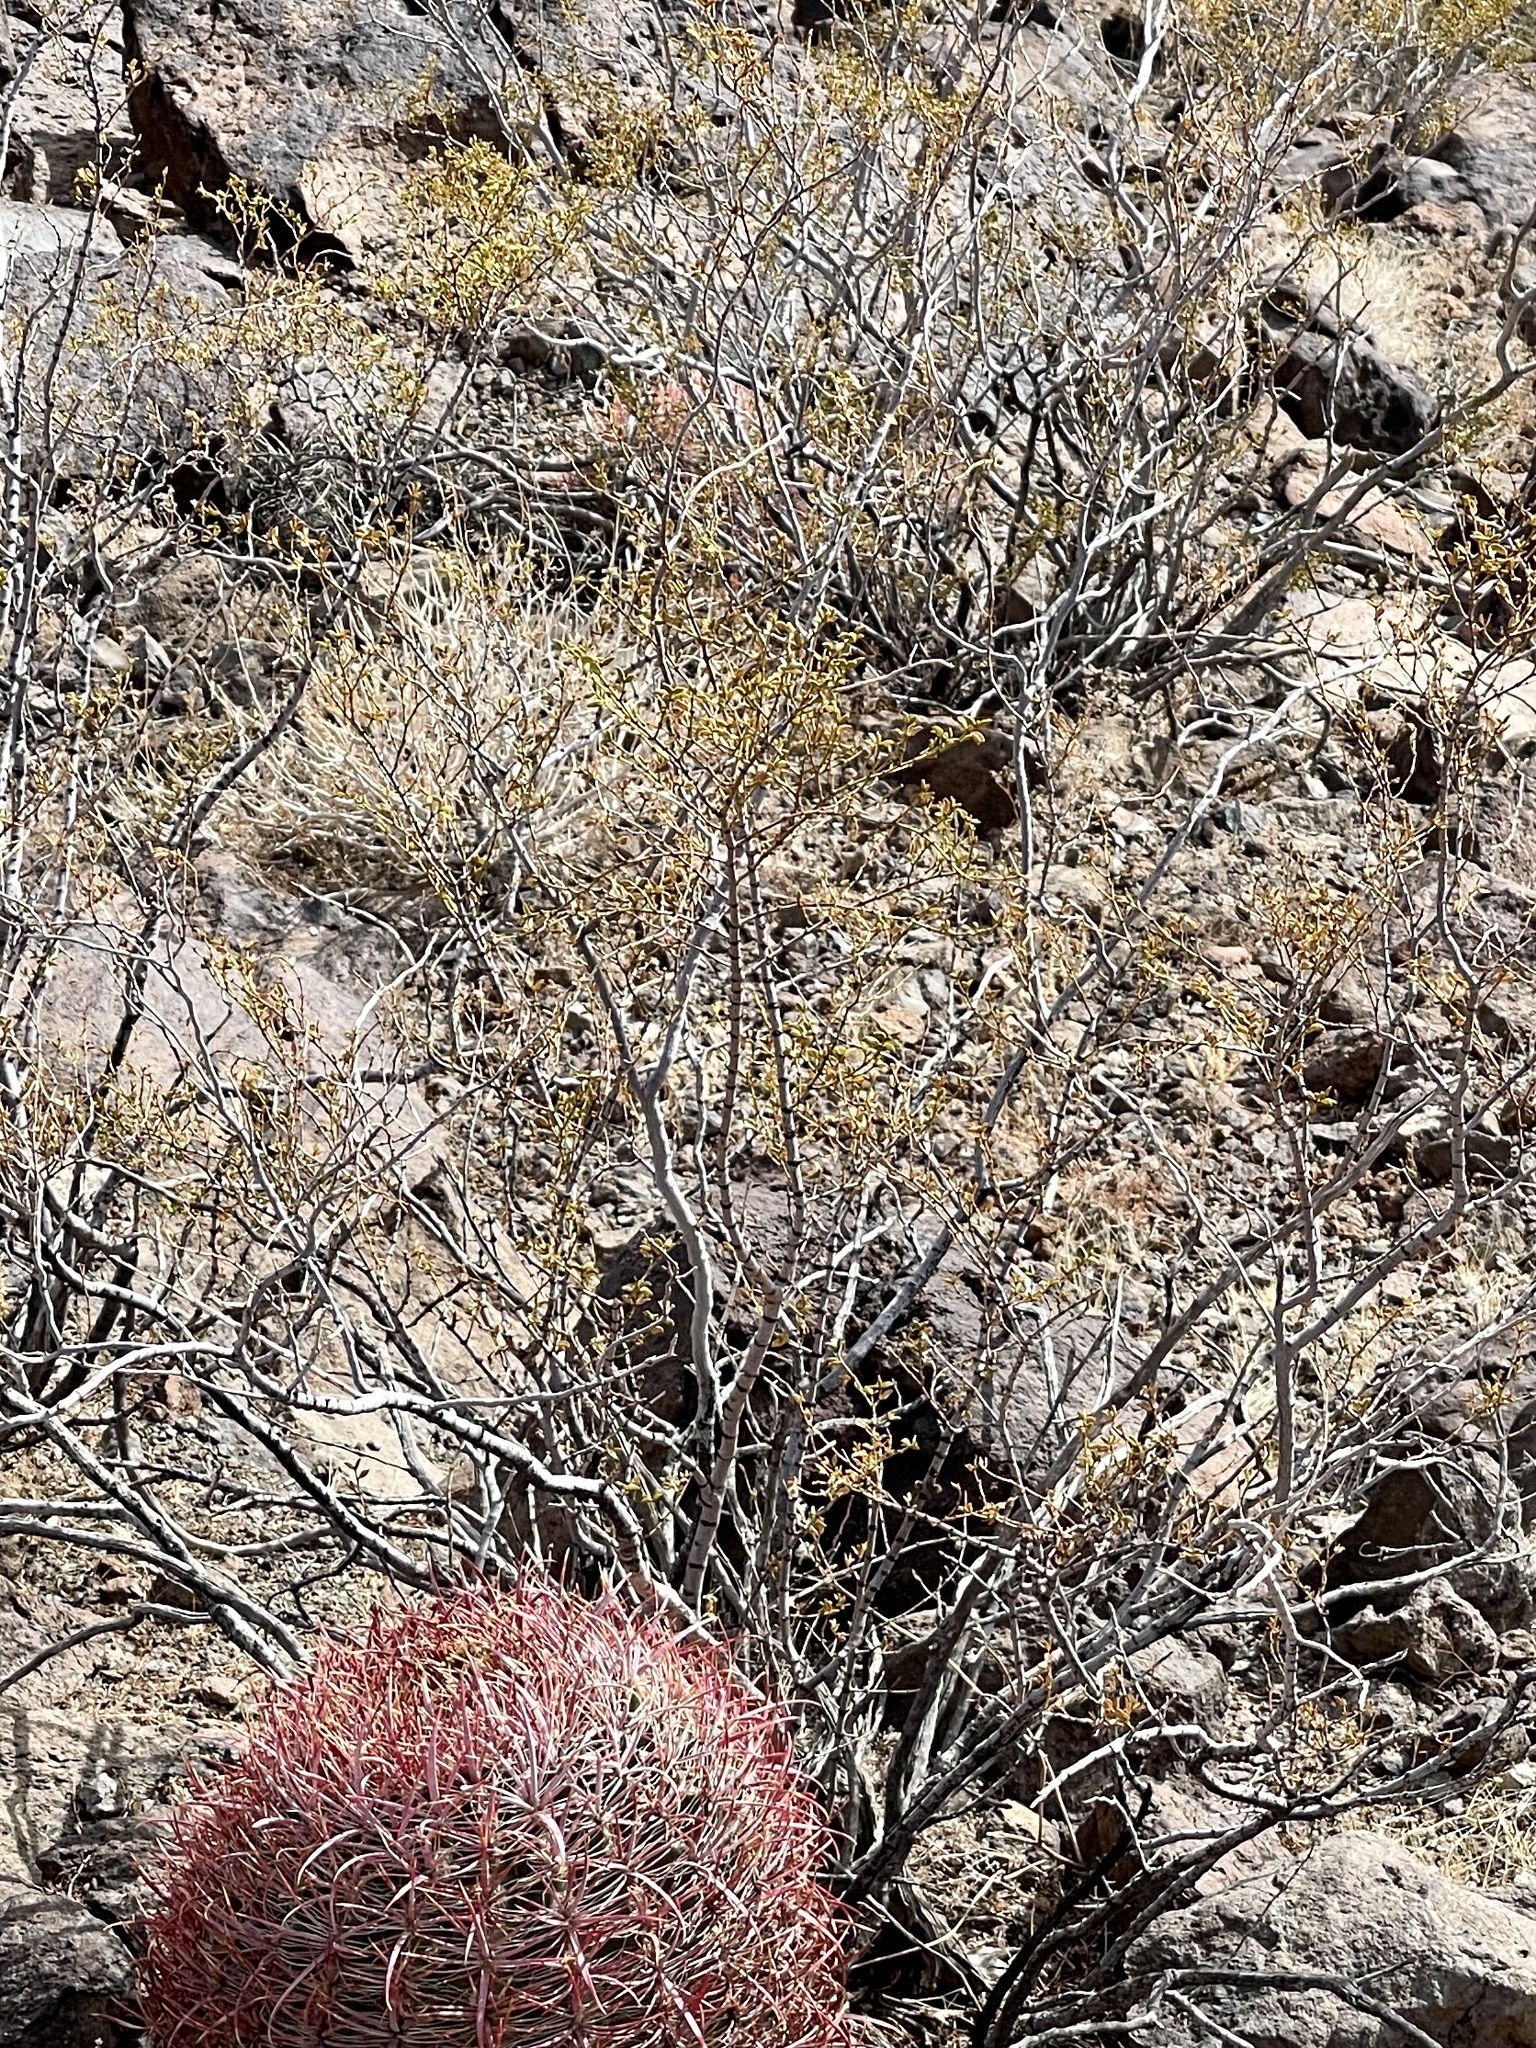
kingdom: Plantae
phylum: Tracheophyta
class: Magnoliopsida
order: Zygophyllales
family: Zygophyllaceae
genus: Larrea
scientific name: Larrea tridentata
